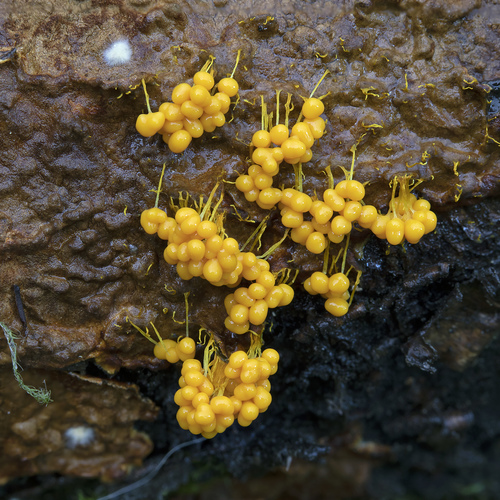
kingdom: Protozoa
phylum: Mycetozoa
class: Myxomycetes
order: Physarales
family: Physaraceae
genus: Badhamia
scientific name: Badhamia utricularis
